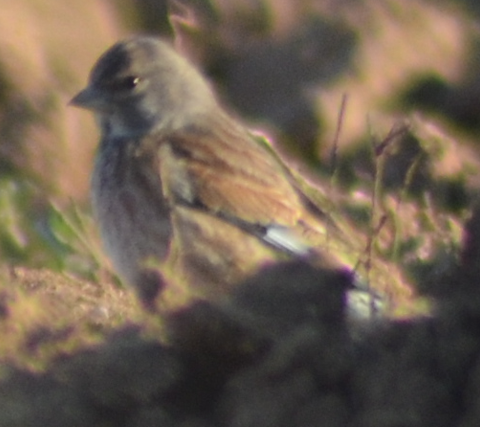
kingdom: Animalia
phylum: Chordata
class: Aves
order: Passeriformes
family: Fringillidae
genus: Linaria
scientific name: Linaria cannabina
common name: Common linnet
